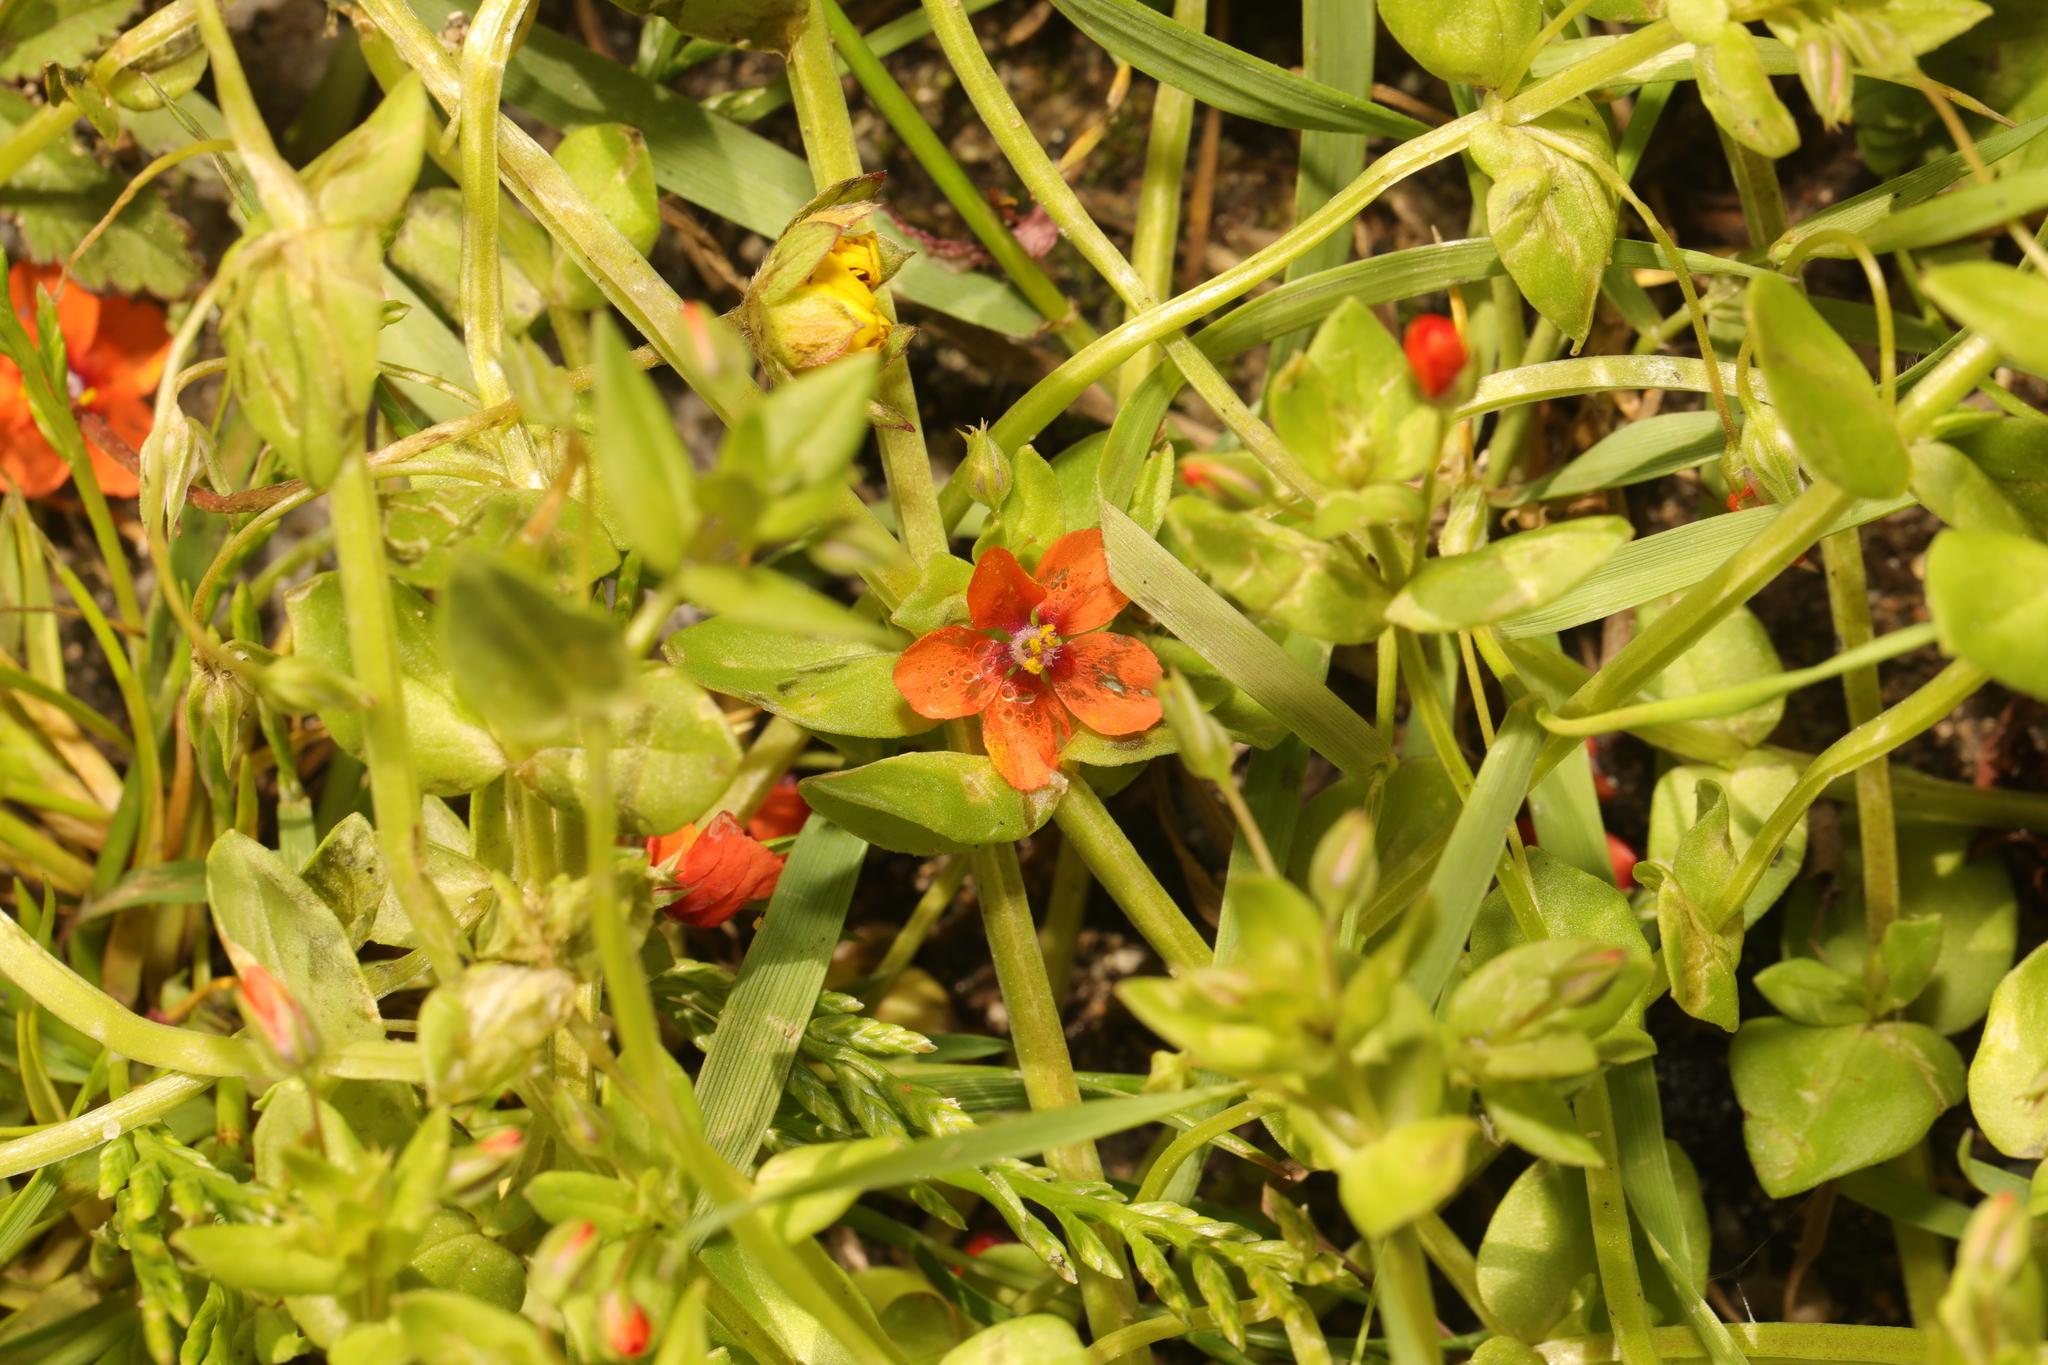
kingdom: Plantae
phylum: Tracheophyta
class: Magnoliopsida
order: Ericales
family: Primulaceae
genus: Lysimachia
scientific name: Lysimachia arvensis
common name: Scarlet pimpernel
